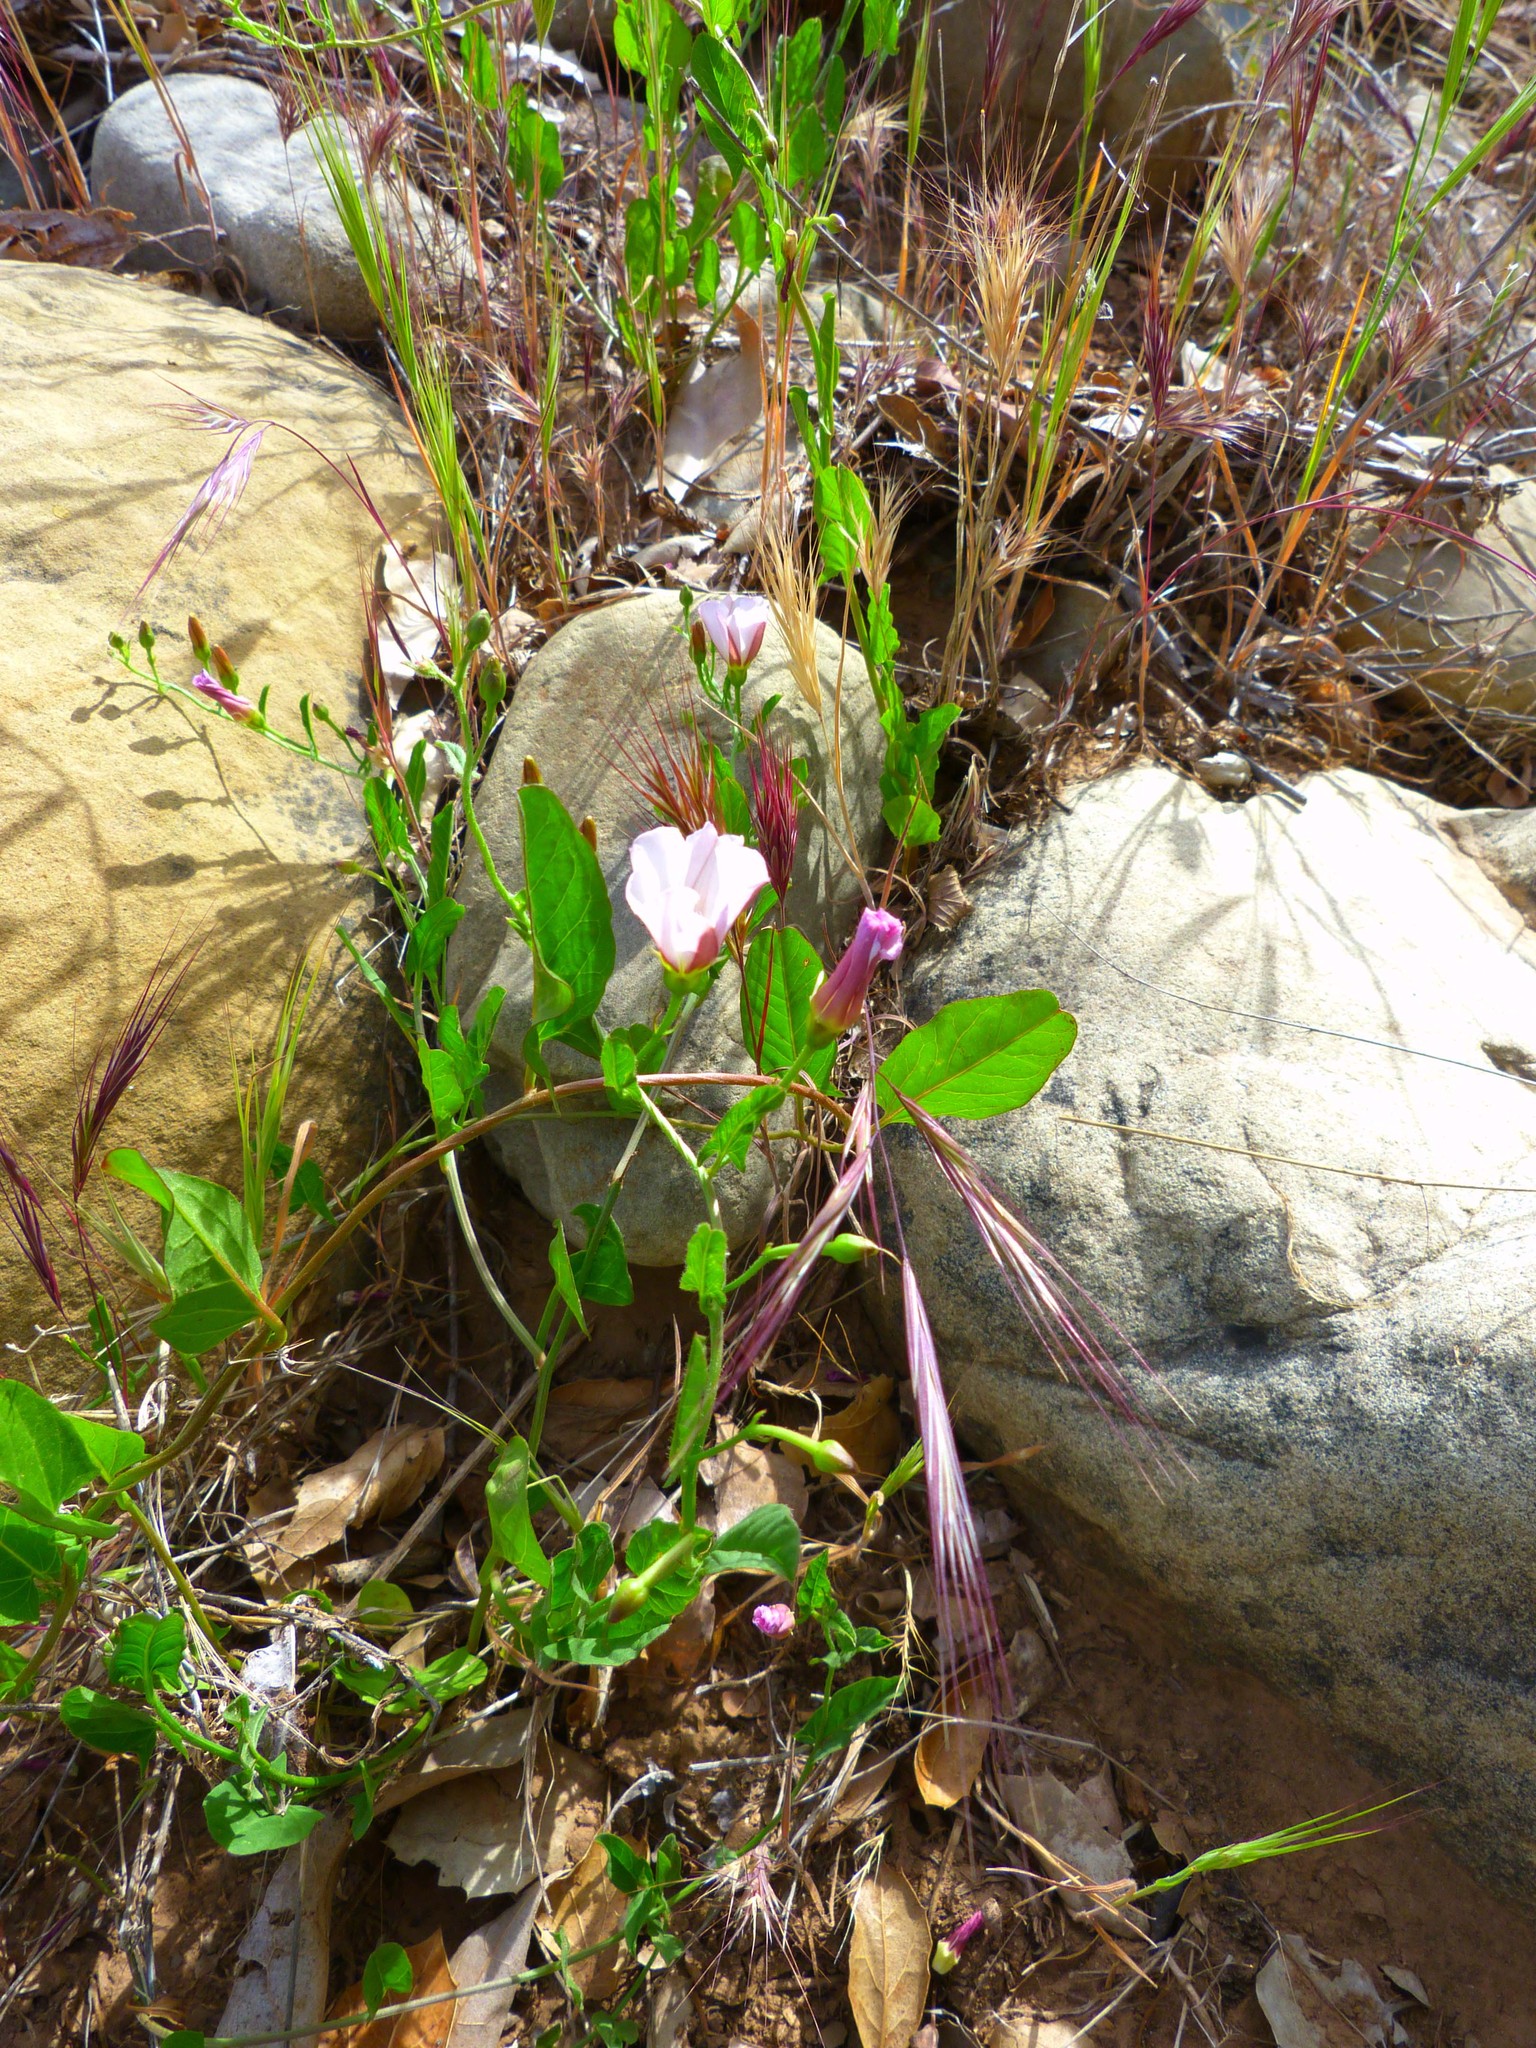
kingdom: Plantae
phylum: Tracheophyta
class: Magnoliopsida
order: Solanales
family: Convolvulaceae
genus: Calystegia
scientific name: Calystegia purpurata
